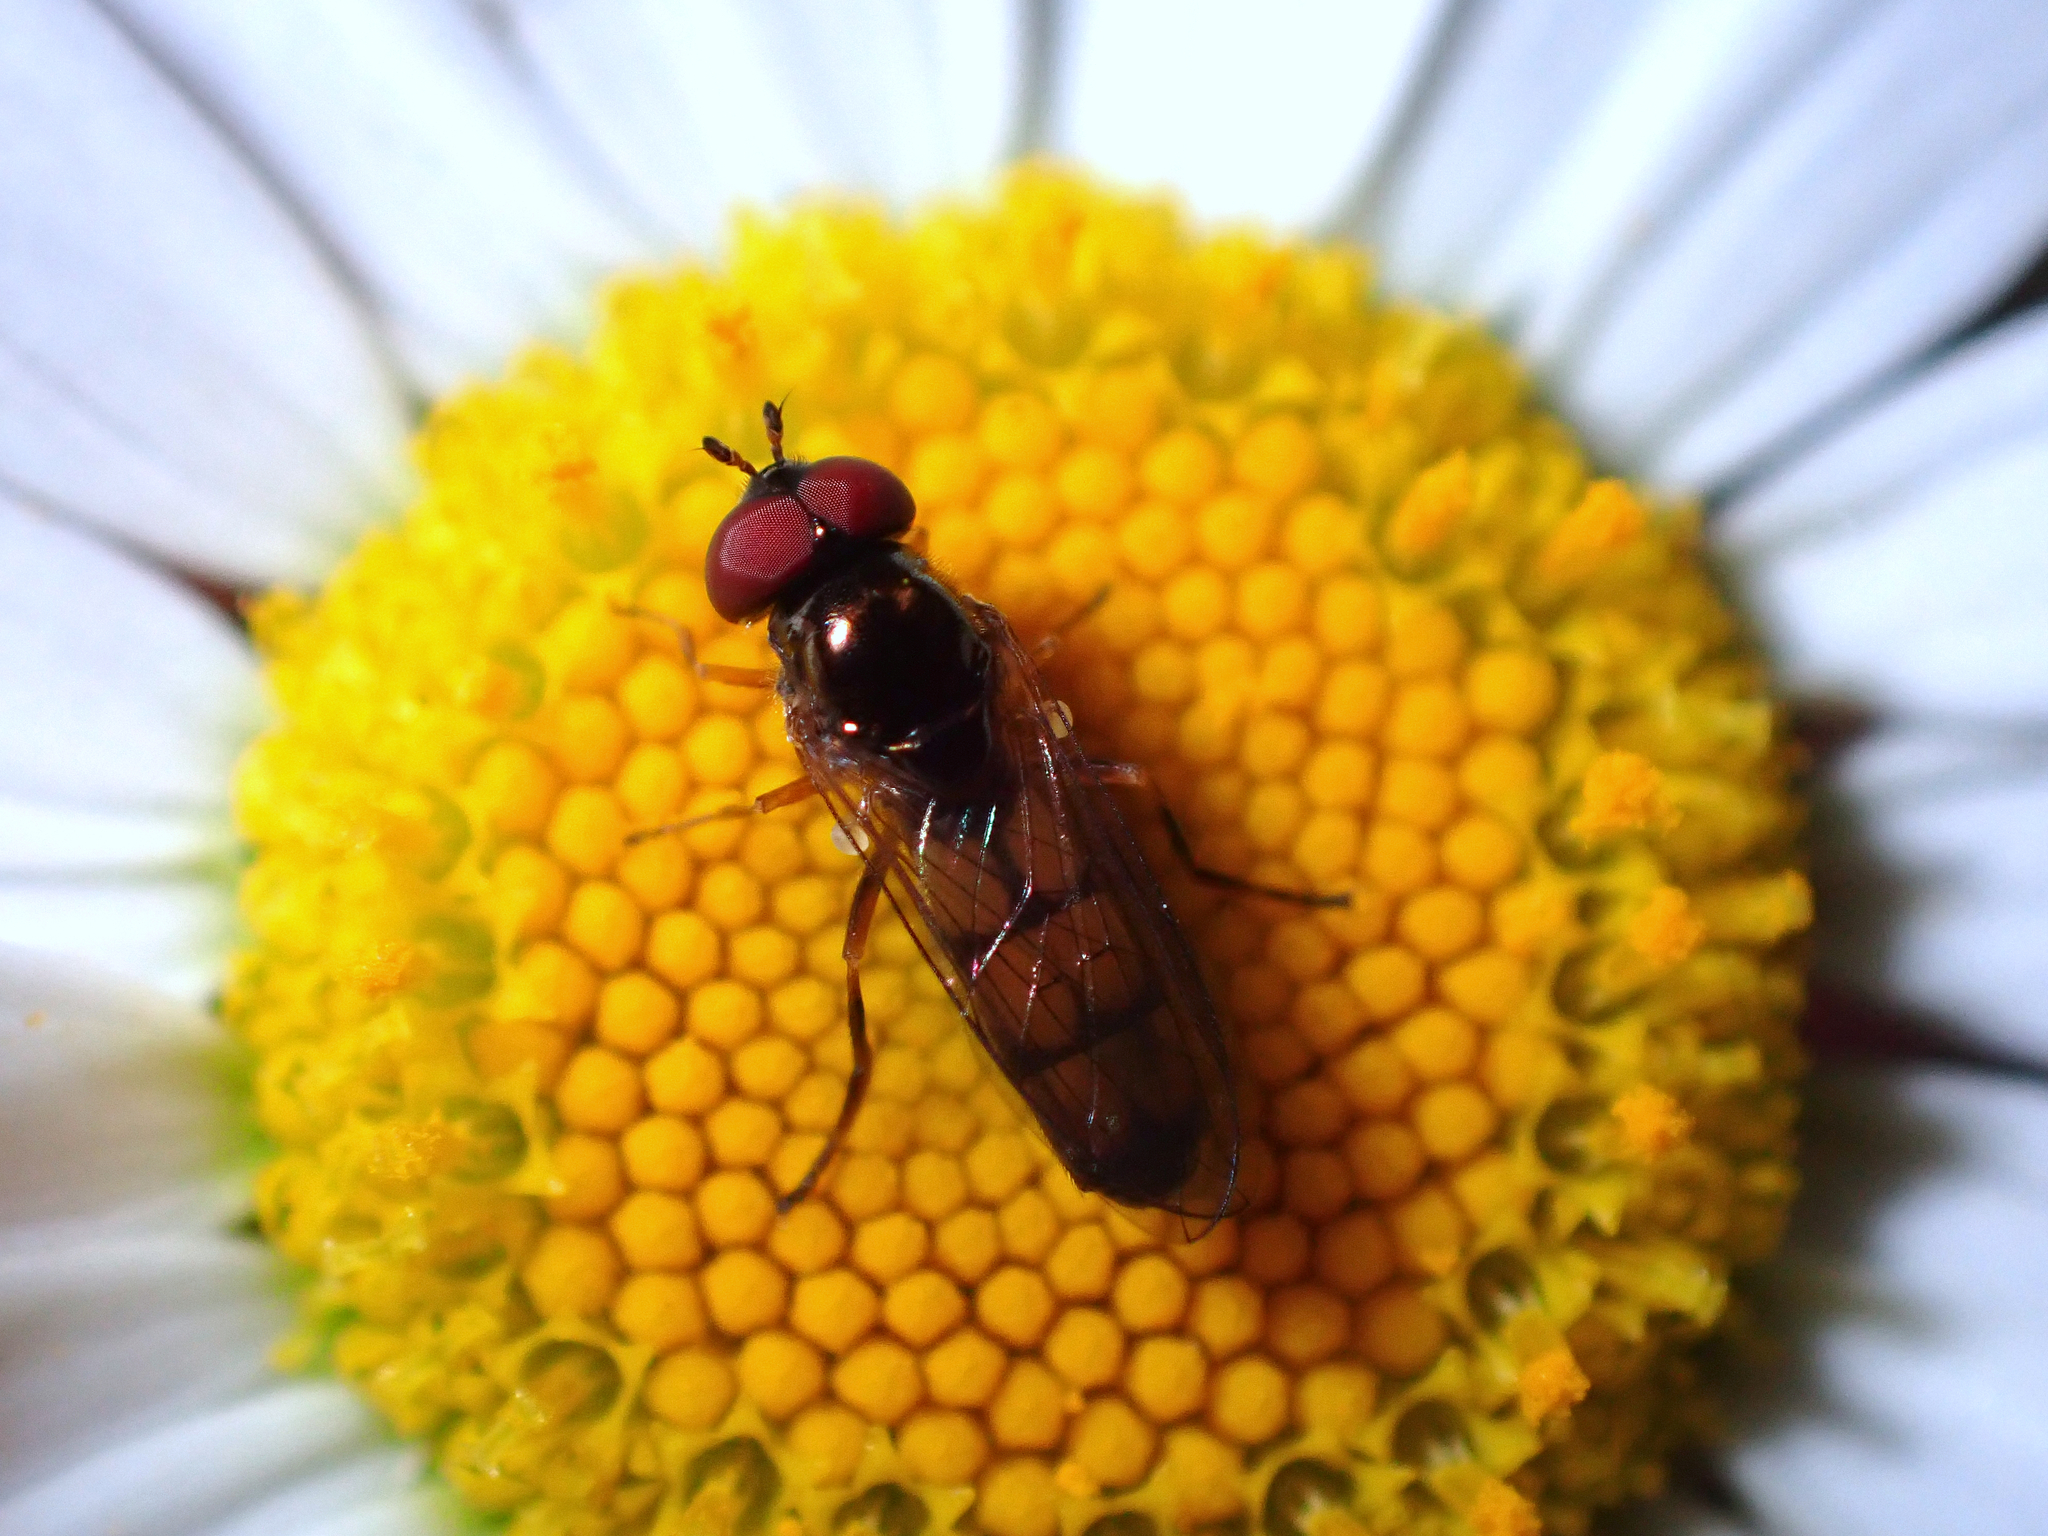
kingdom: Animalia
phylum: Arthropoda
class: Insecta
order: Diptera
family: Syrphidae
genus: Melanostoma
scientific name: Melanostoma fasciatum
